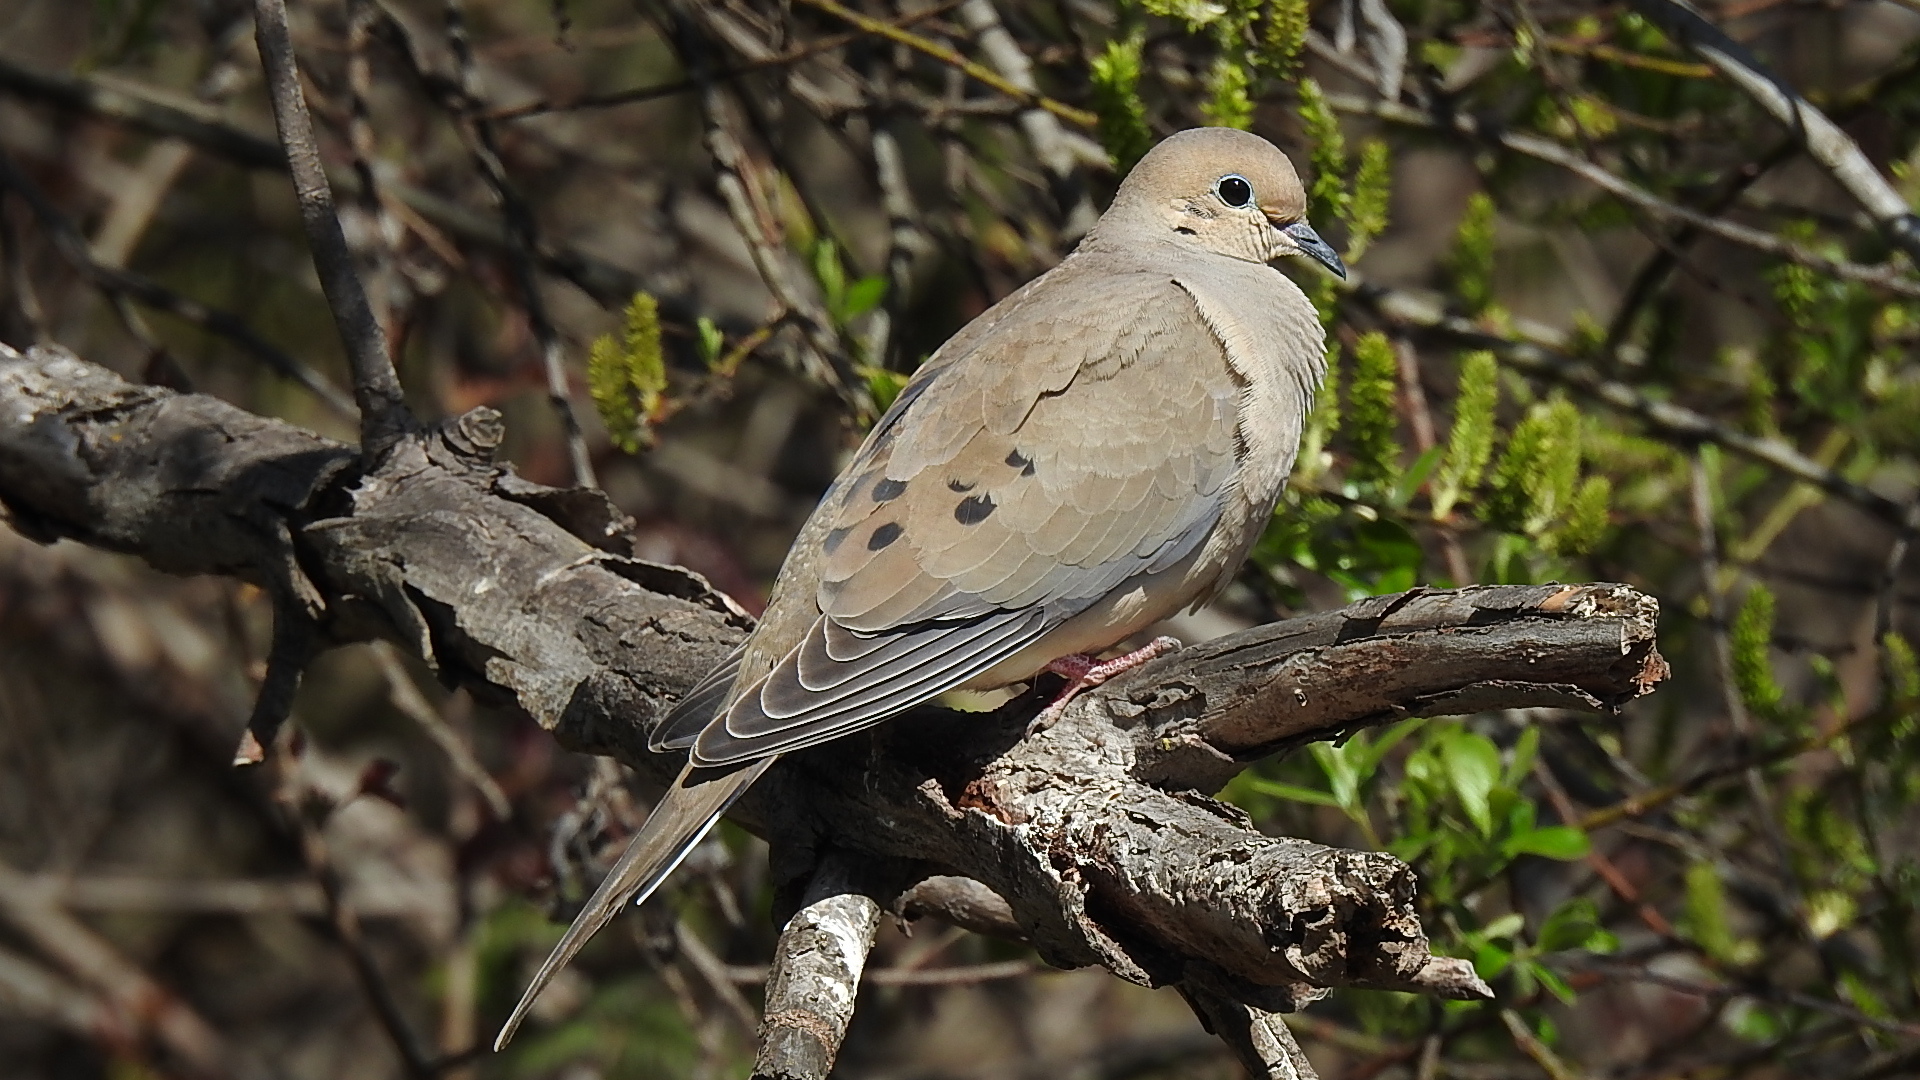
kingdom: Animalia
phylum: Chordata
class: Aves
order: Columbiformes
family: Columbidae
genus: Zenaida
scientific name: Zenaida macroura
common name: Mourning dove
